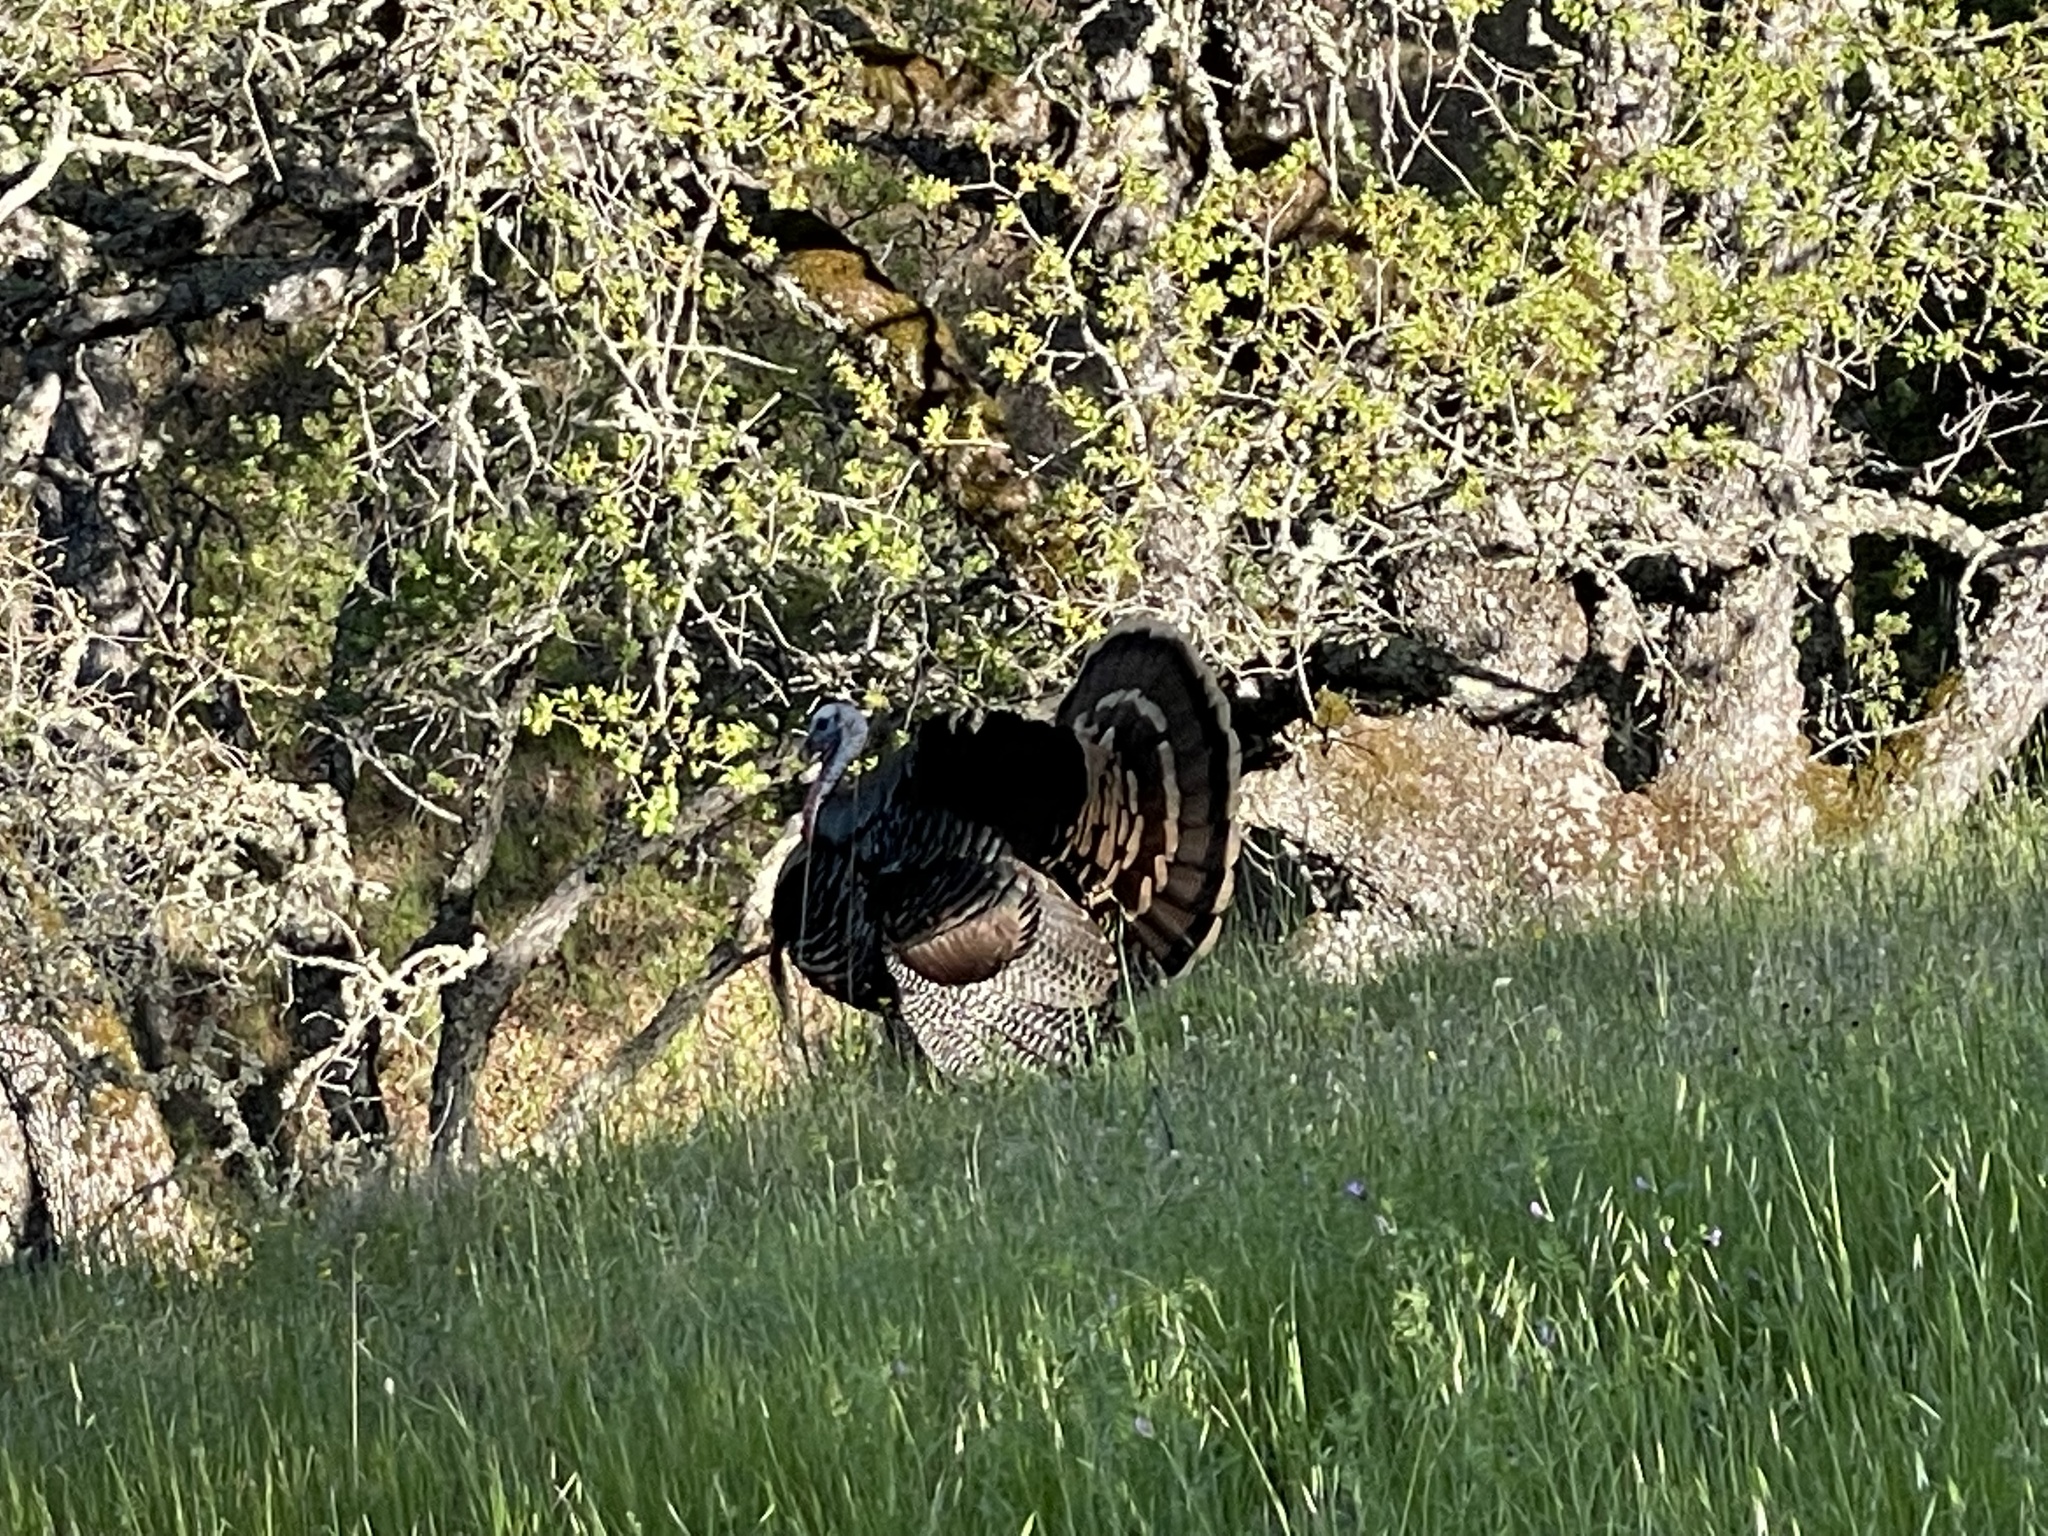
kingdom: Animalia
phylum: Chordata
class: Aves
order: Galliformes
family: Phasianidae
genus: Meleagris
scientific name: Meleagris gallopavo
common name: Wild turkey
